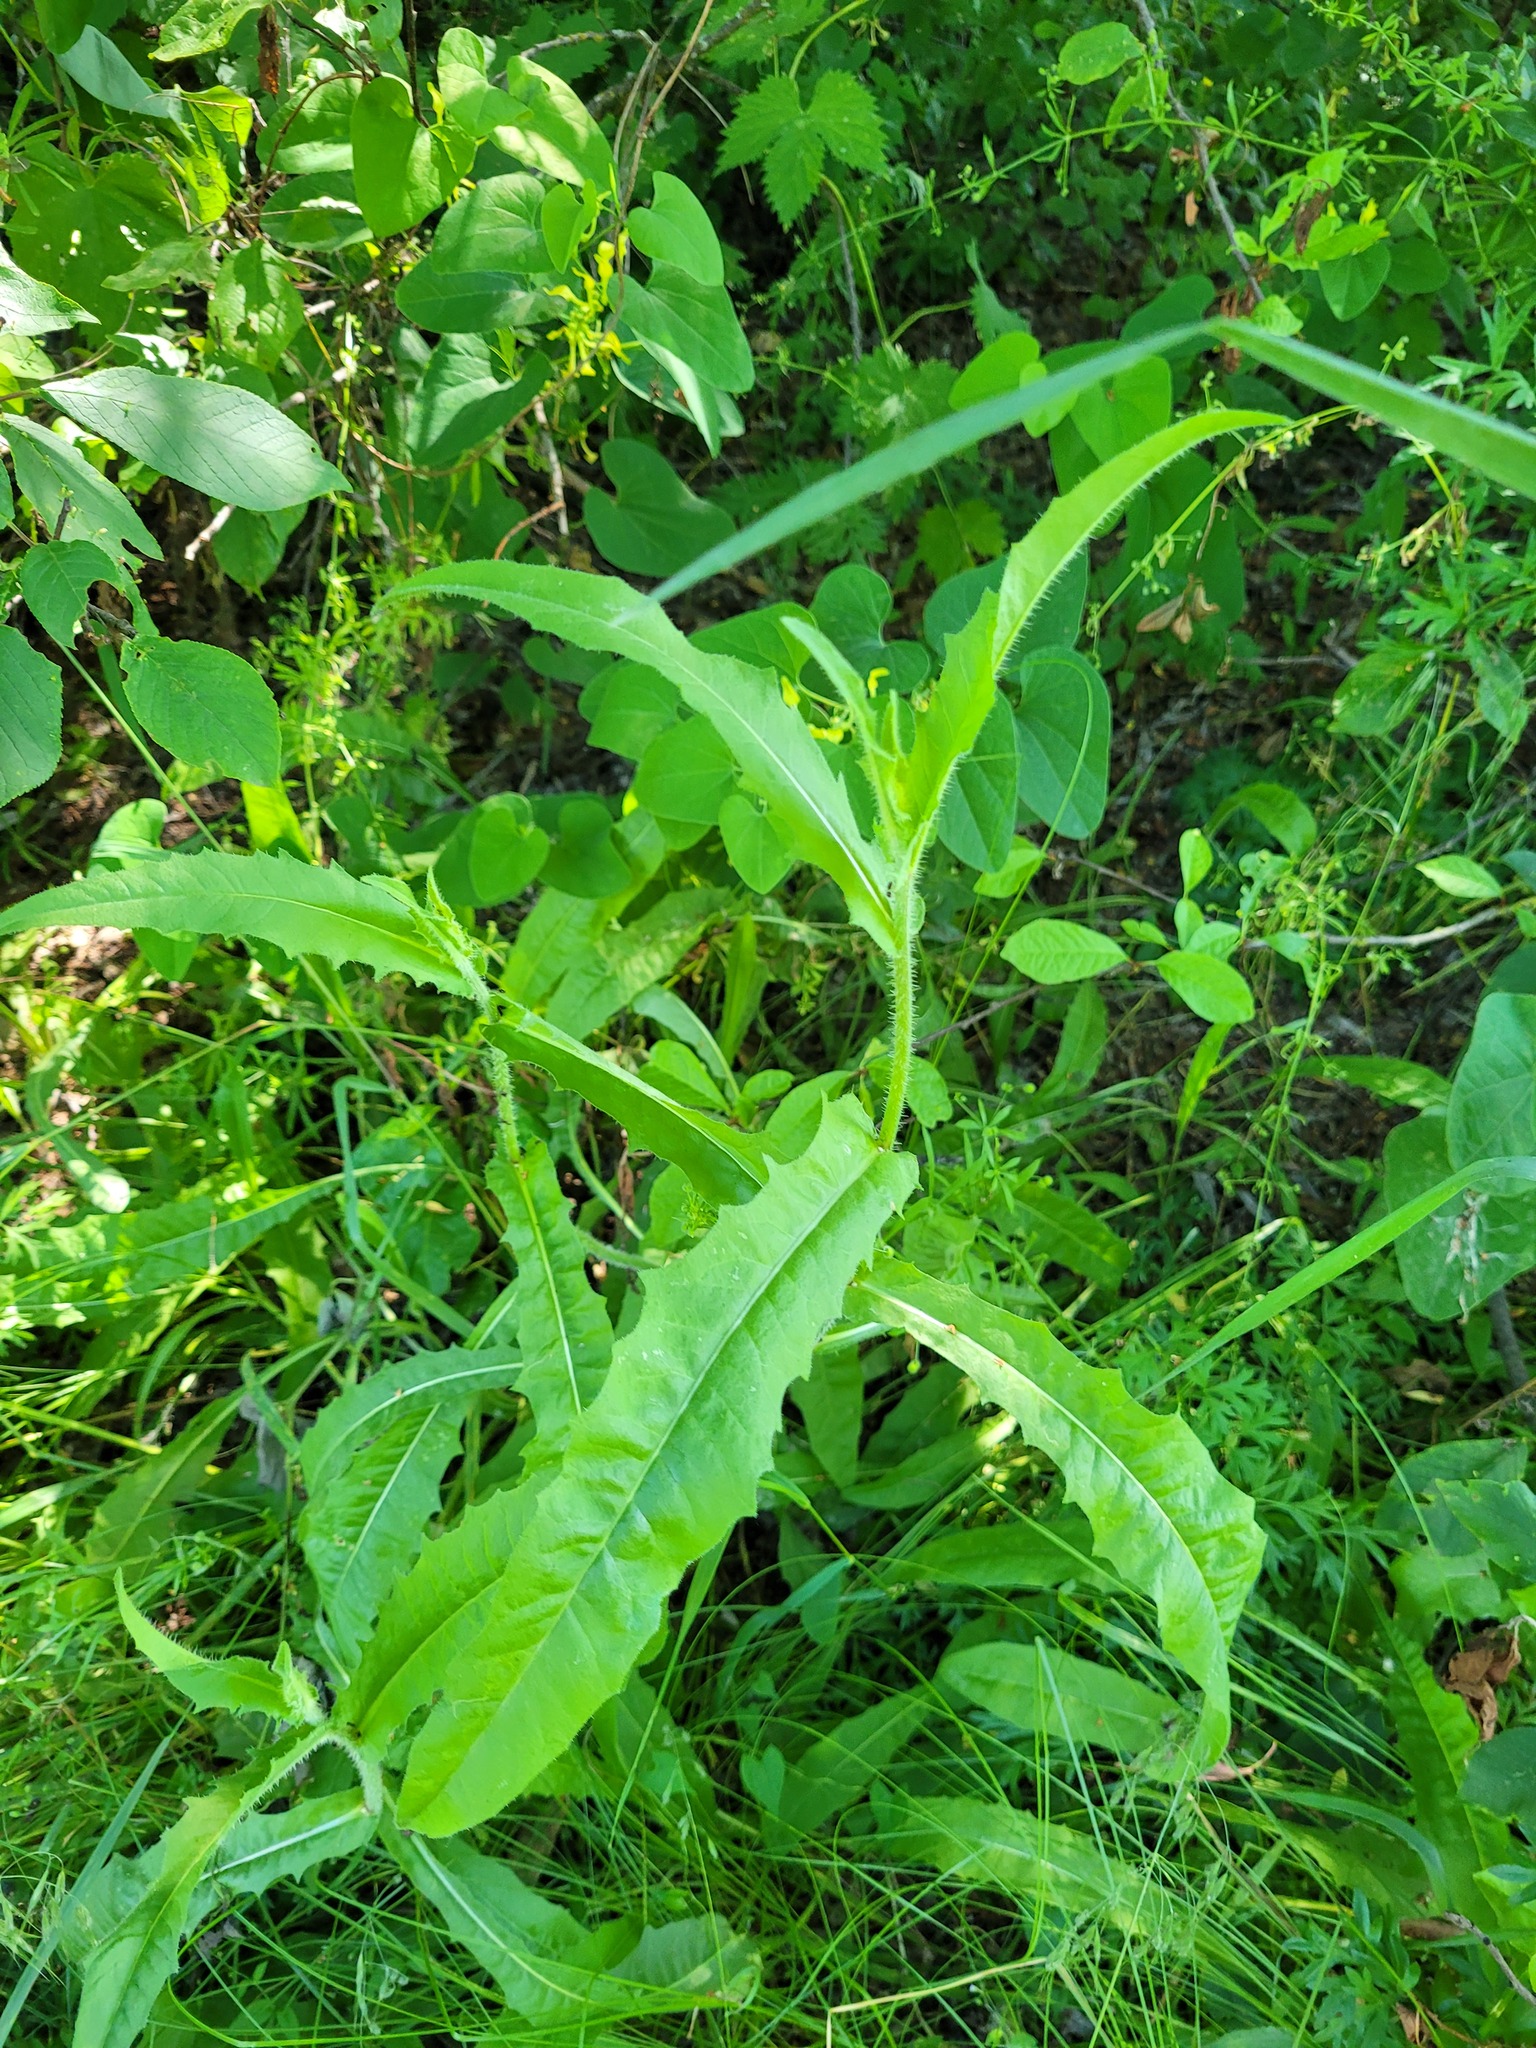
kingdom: Plantae
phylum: Tracheophyta
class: Magnoliopsida
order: Asterales
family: Asteraceae
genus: Picris
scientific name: Picris hieracioides
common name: Hawkweed oxtongue
